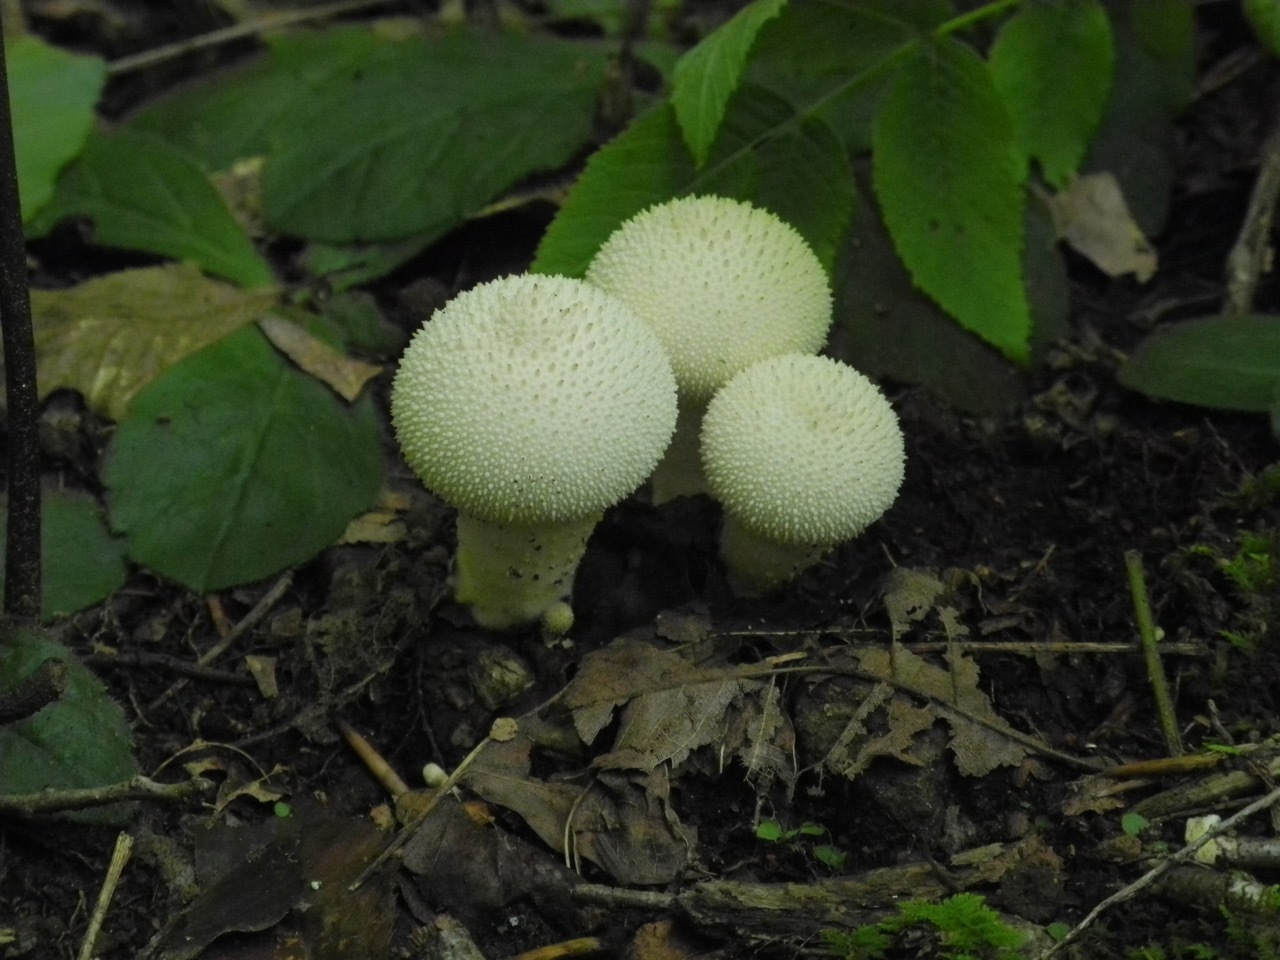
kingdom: Fungi
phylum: Basidiomycota
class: Agaricomycetes
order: Agaricales
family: Agaricaceae
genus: Lycoperdon
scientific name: Lycoperdon marginatum
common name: Peeling puffball
